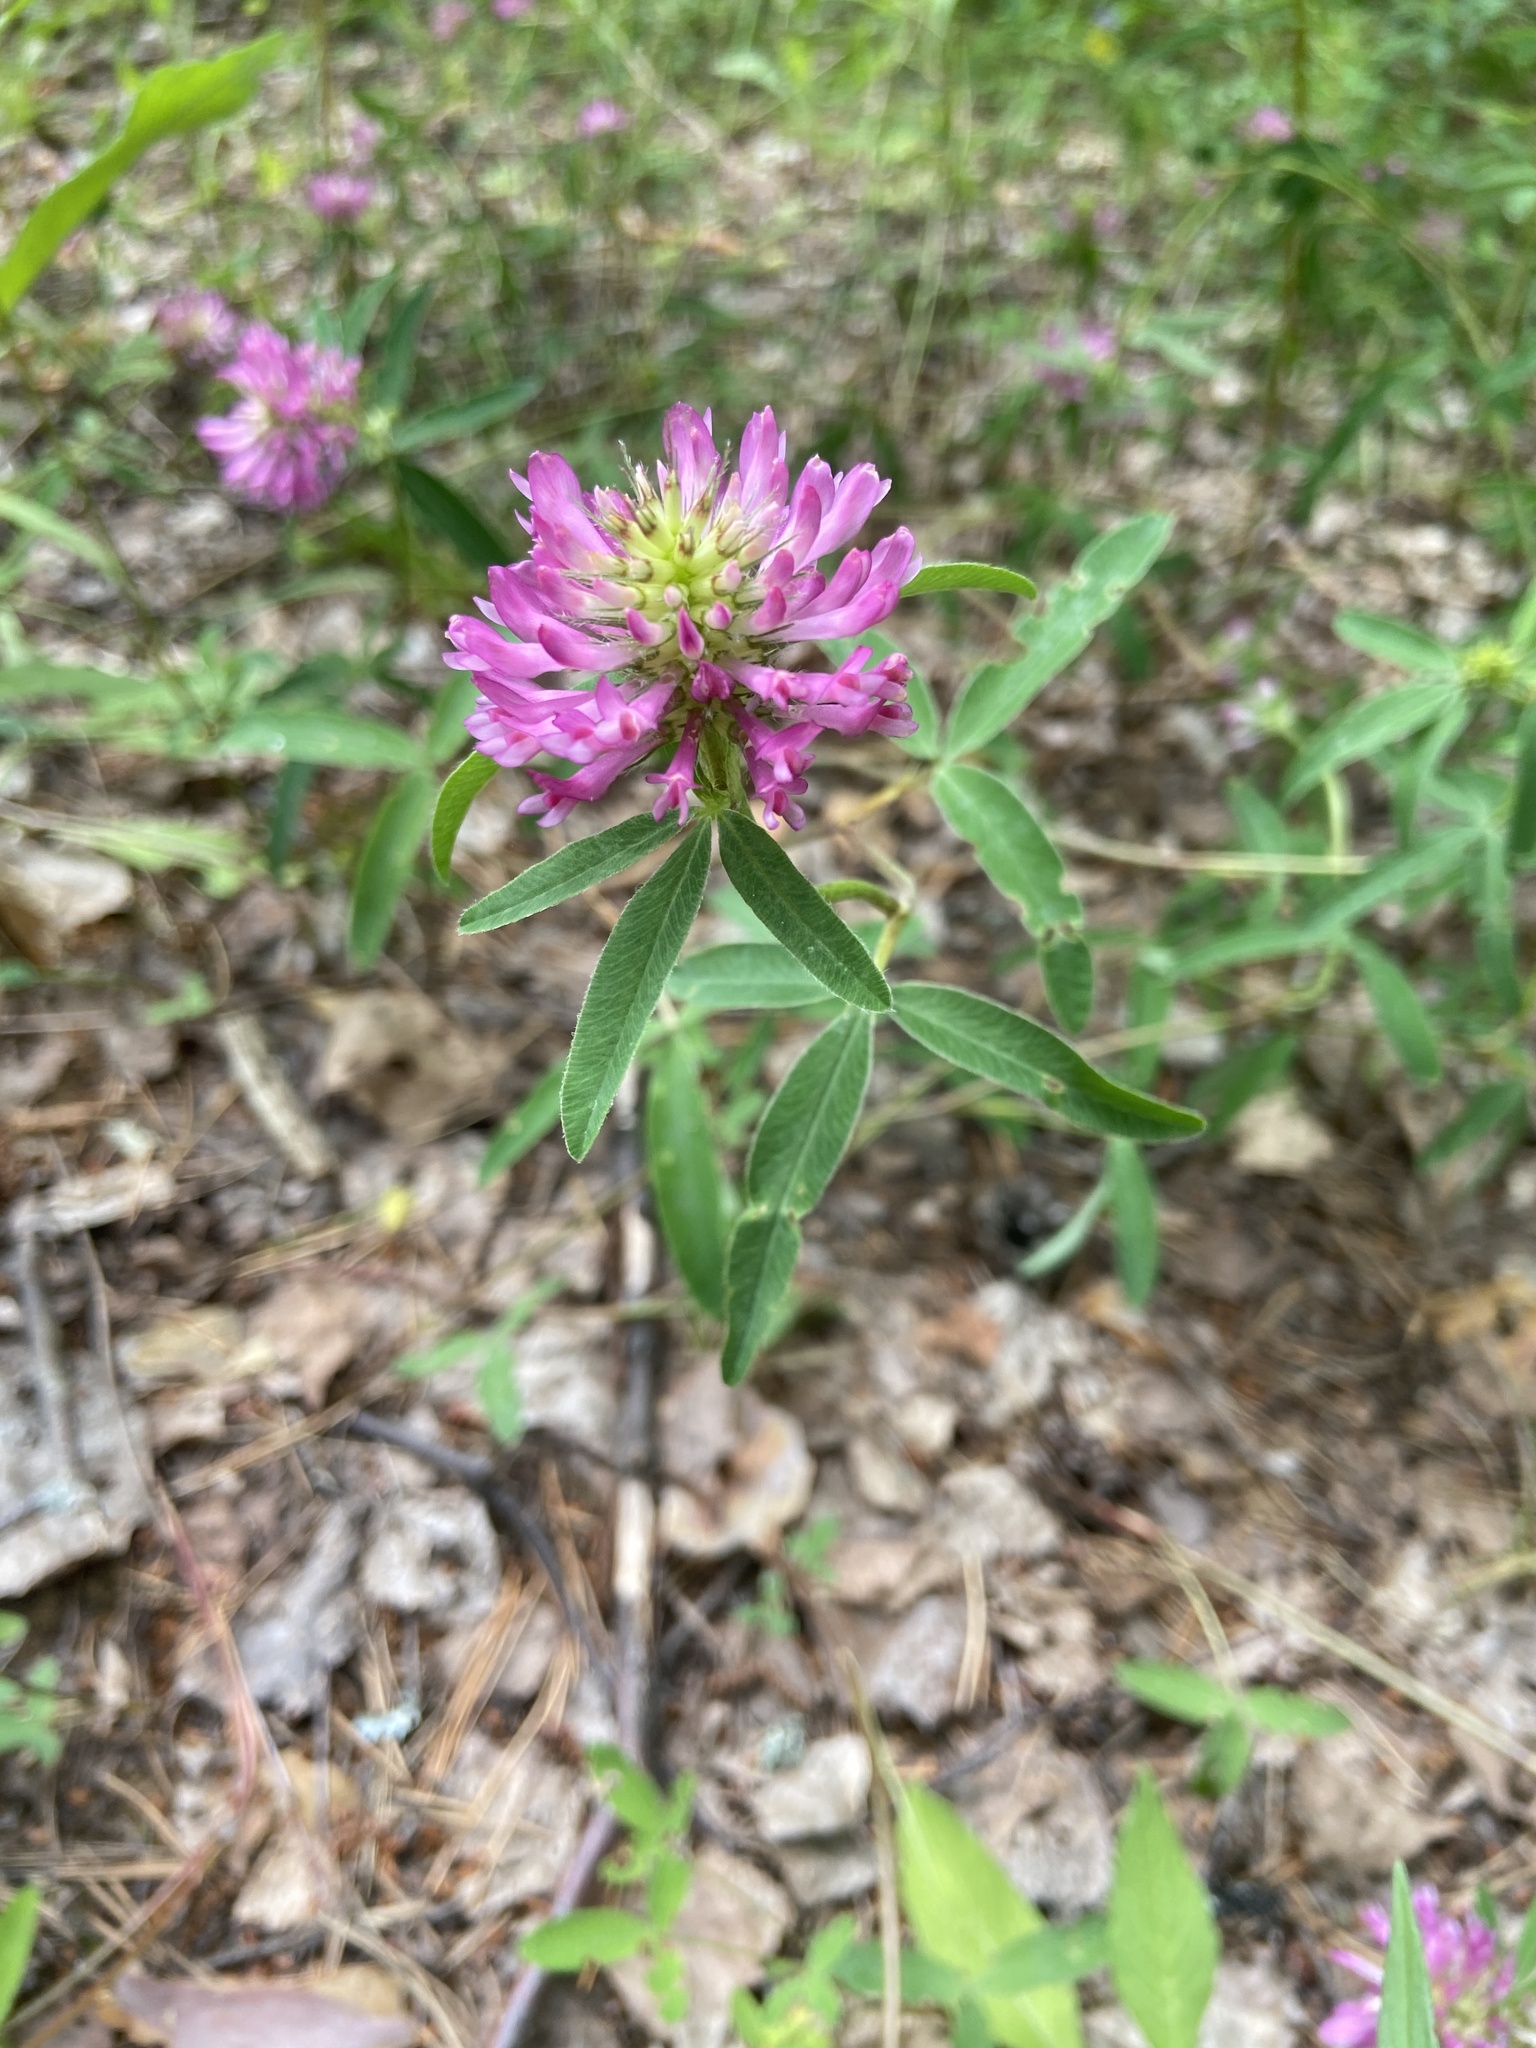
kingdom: Plantae
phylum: Tracheophyta
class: Magnoliopsida
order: Fabales
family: Fabaceae
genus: Trifolium
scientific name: Trifolium medium
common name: Zigzag clover
